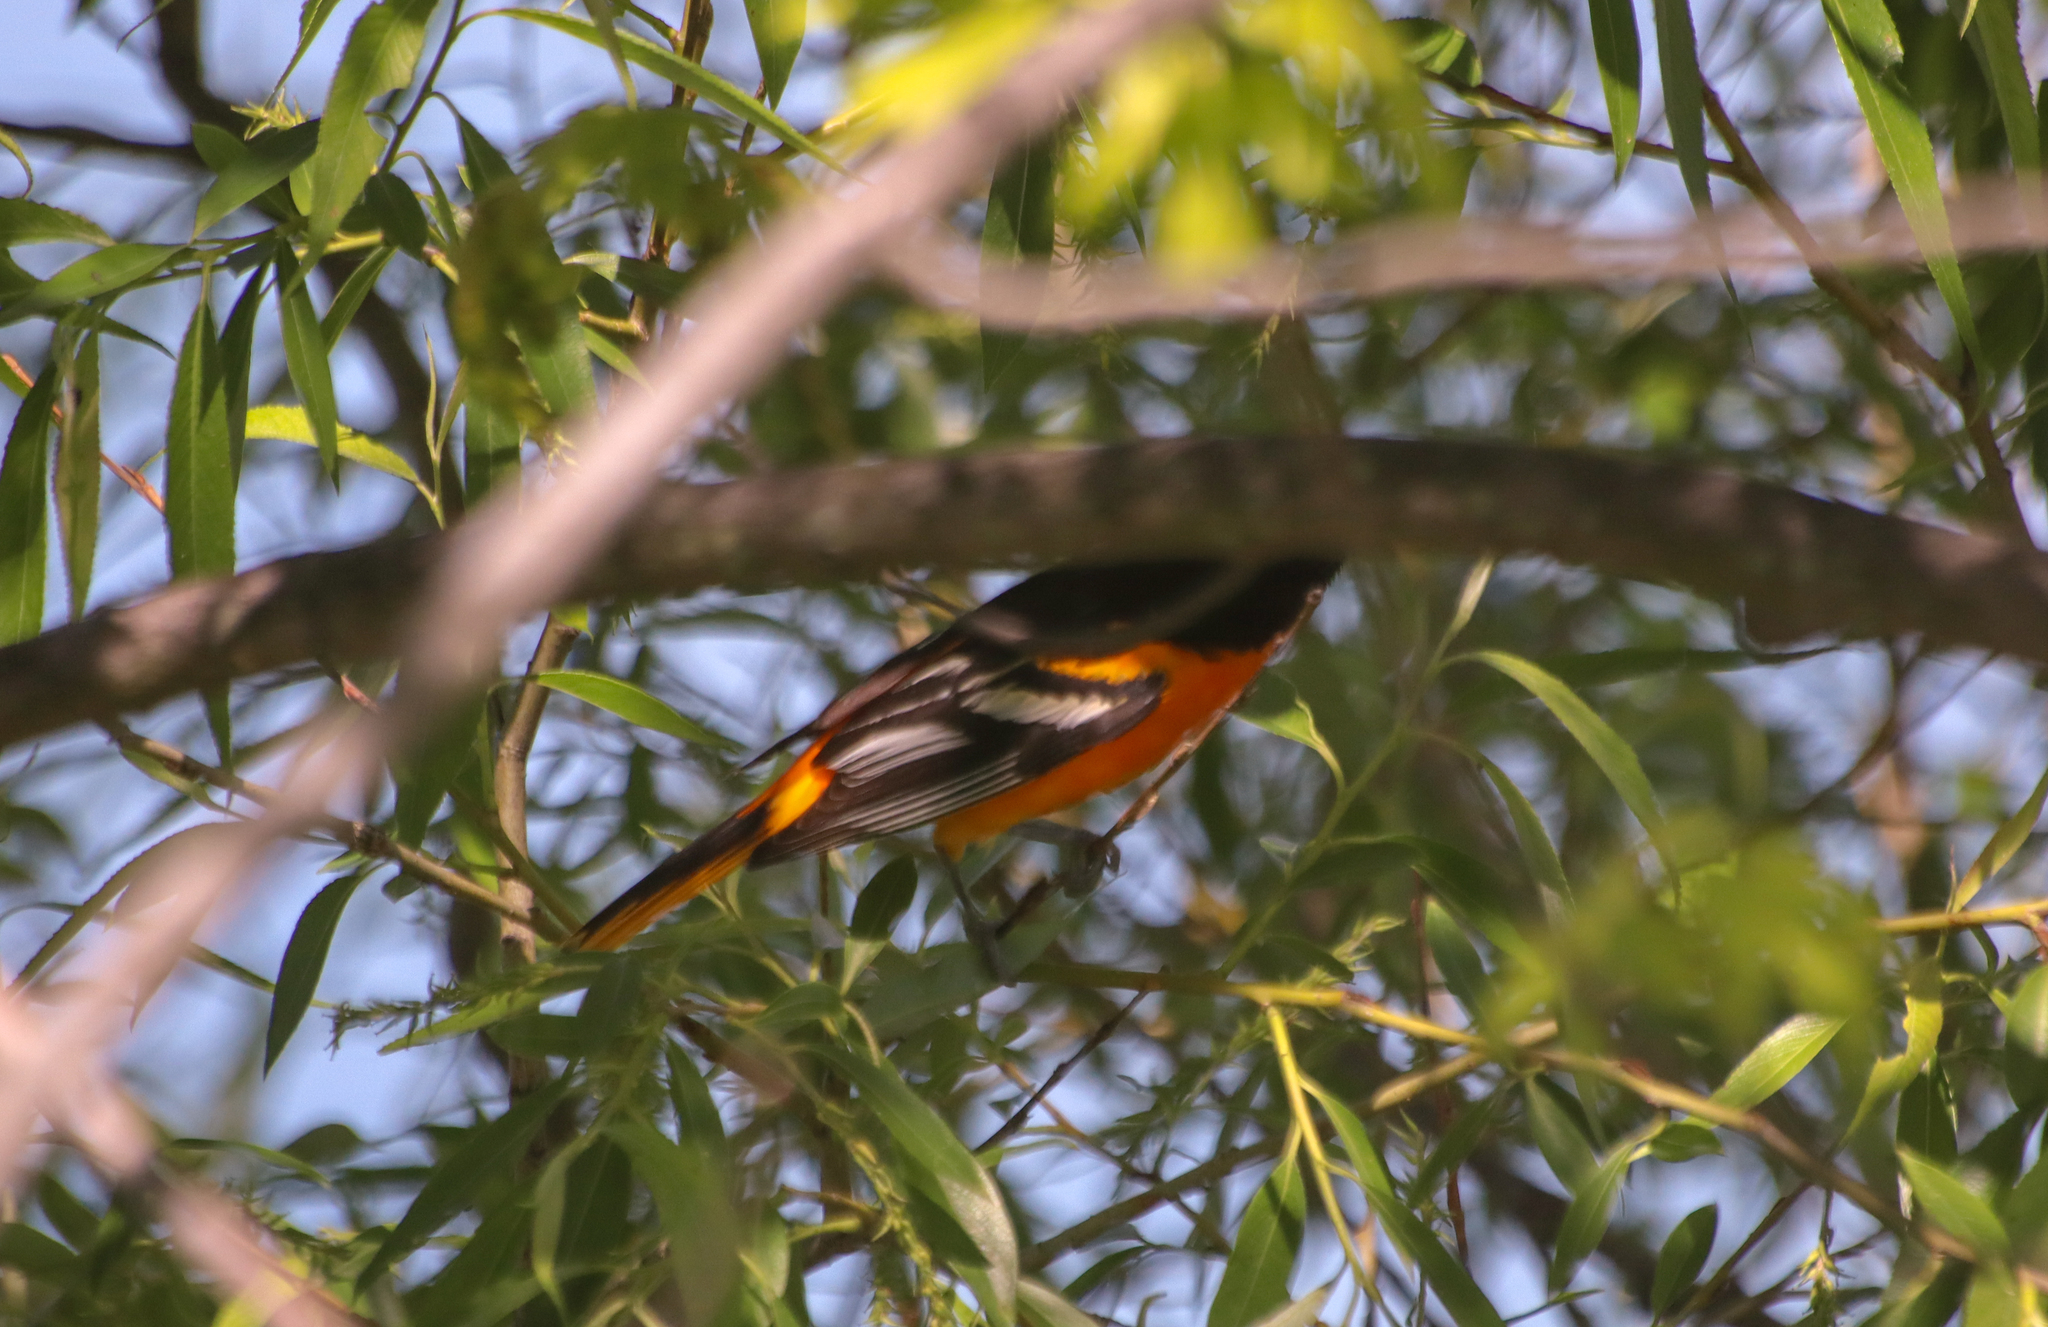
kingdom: Animalia
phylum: Chordata
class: Aves
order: Passeriformes
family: Icteridae
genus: Icterus
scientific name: Icterus galbula
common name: Baltimore oriole
